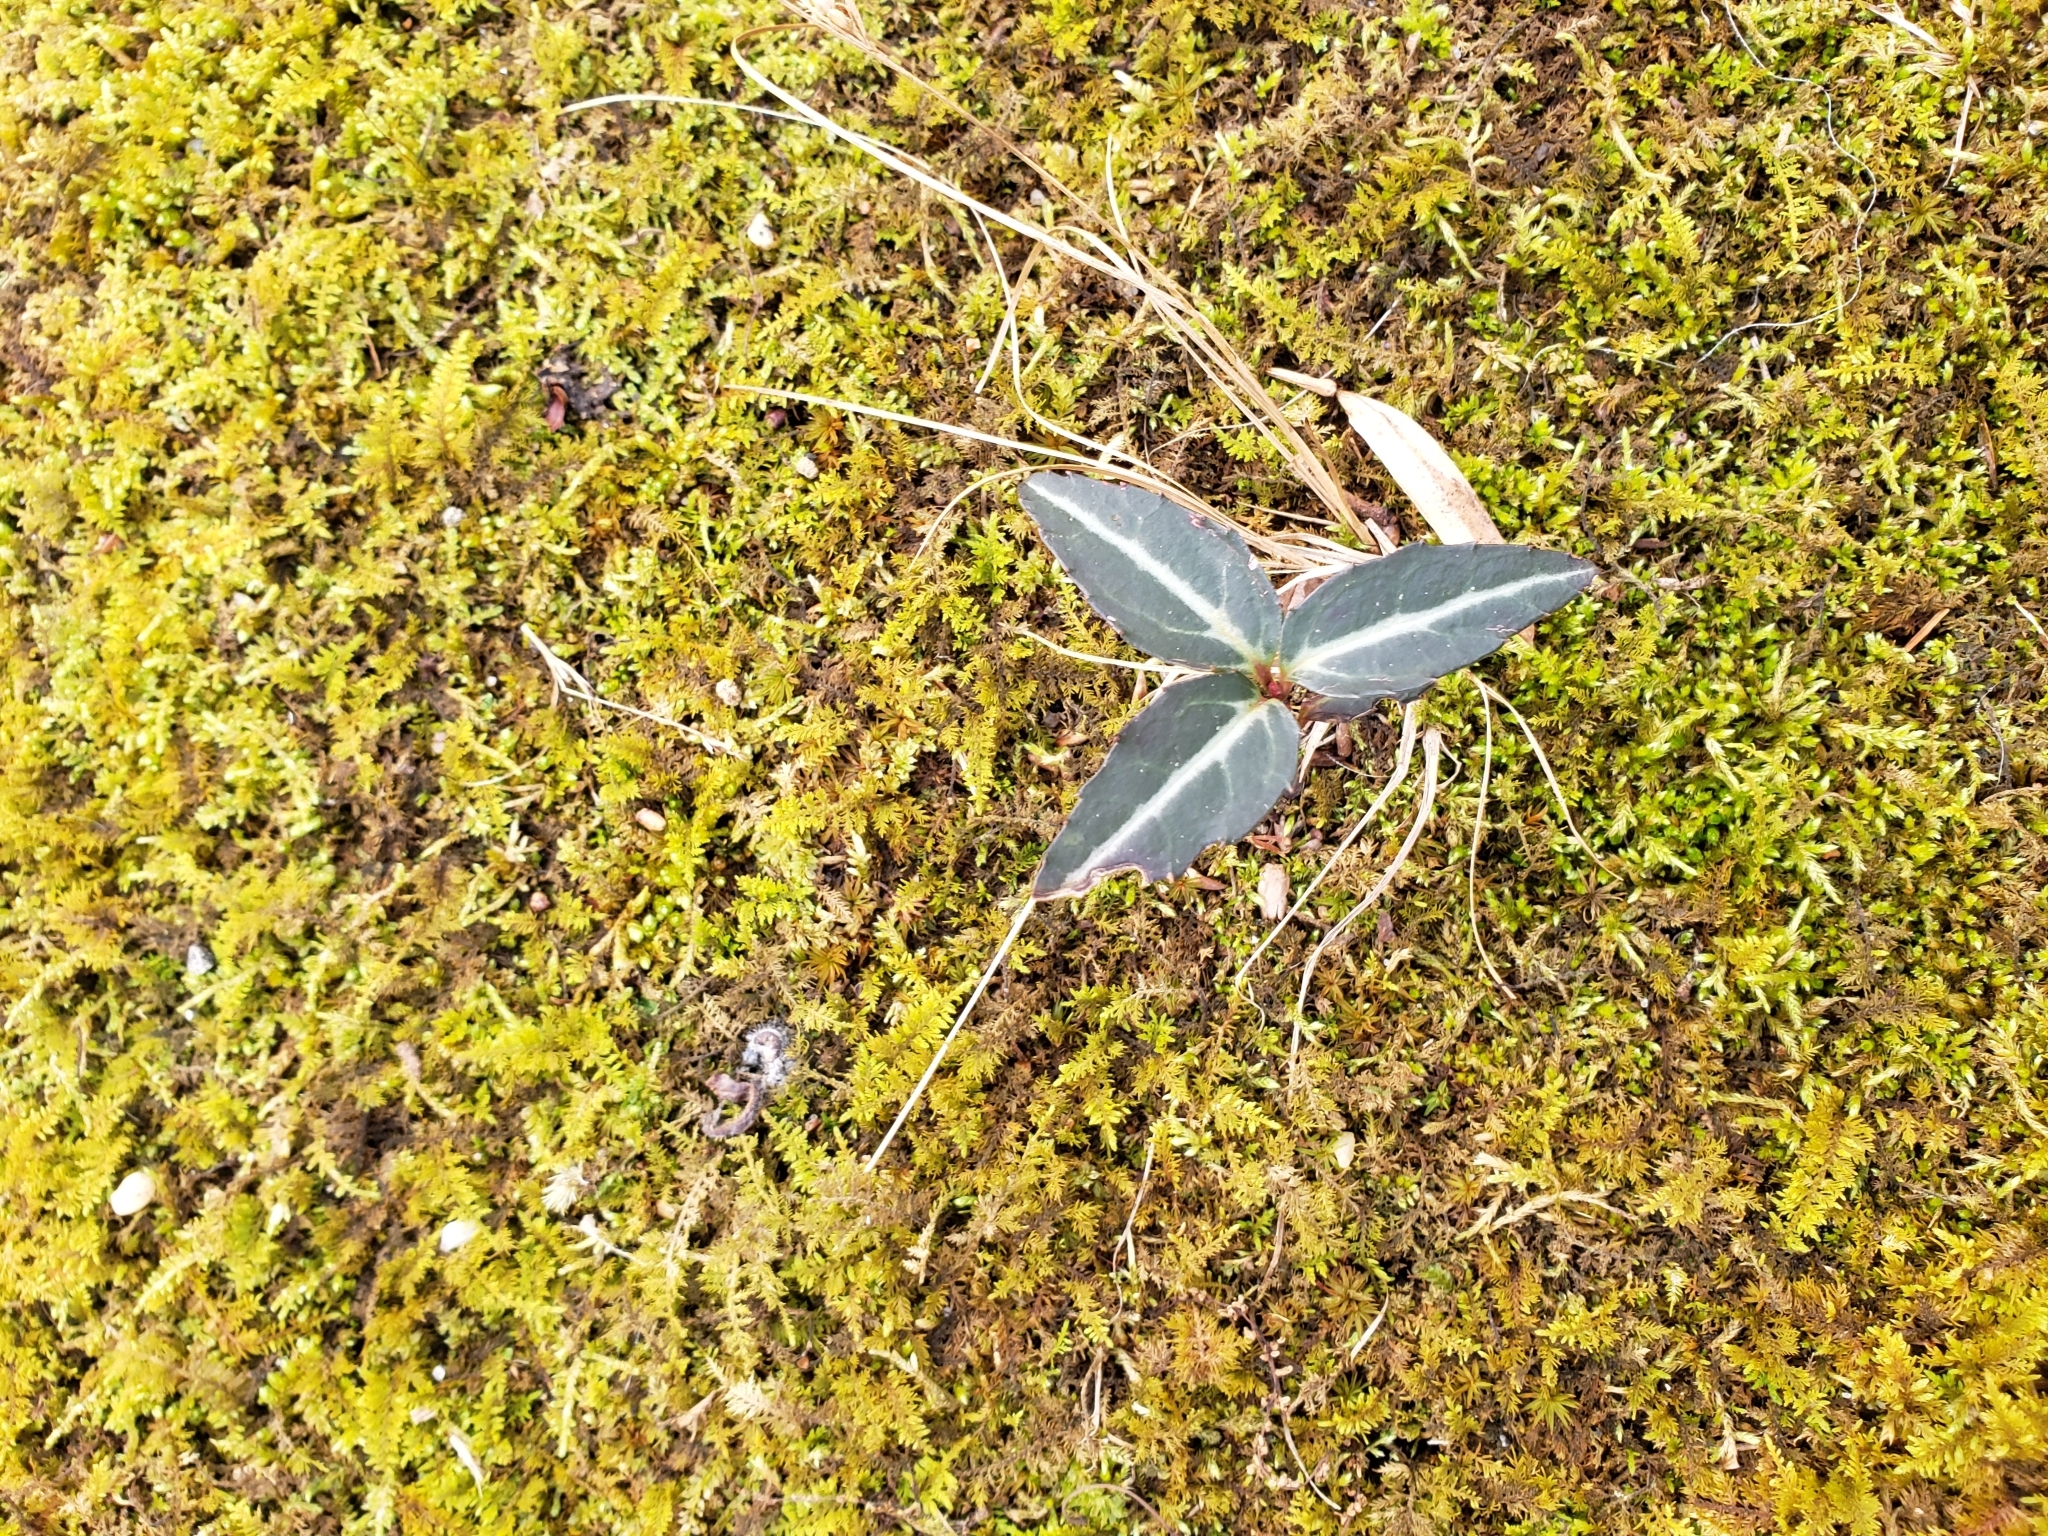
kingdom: Plantae
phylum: Tracheophyta
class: Magnoliopsida
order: Ericales
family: Ericaceae
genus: Chimaphila
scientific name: Chimaphila maculata
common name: Spotted pipsissewa
